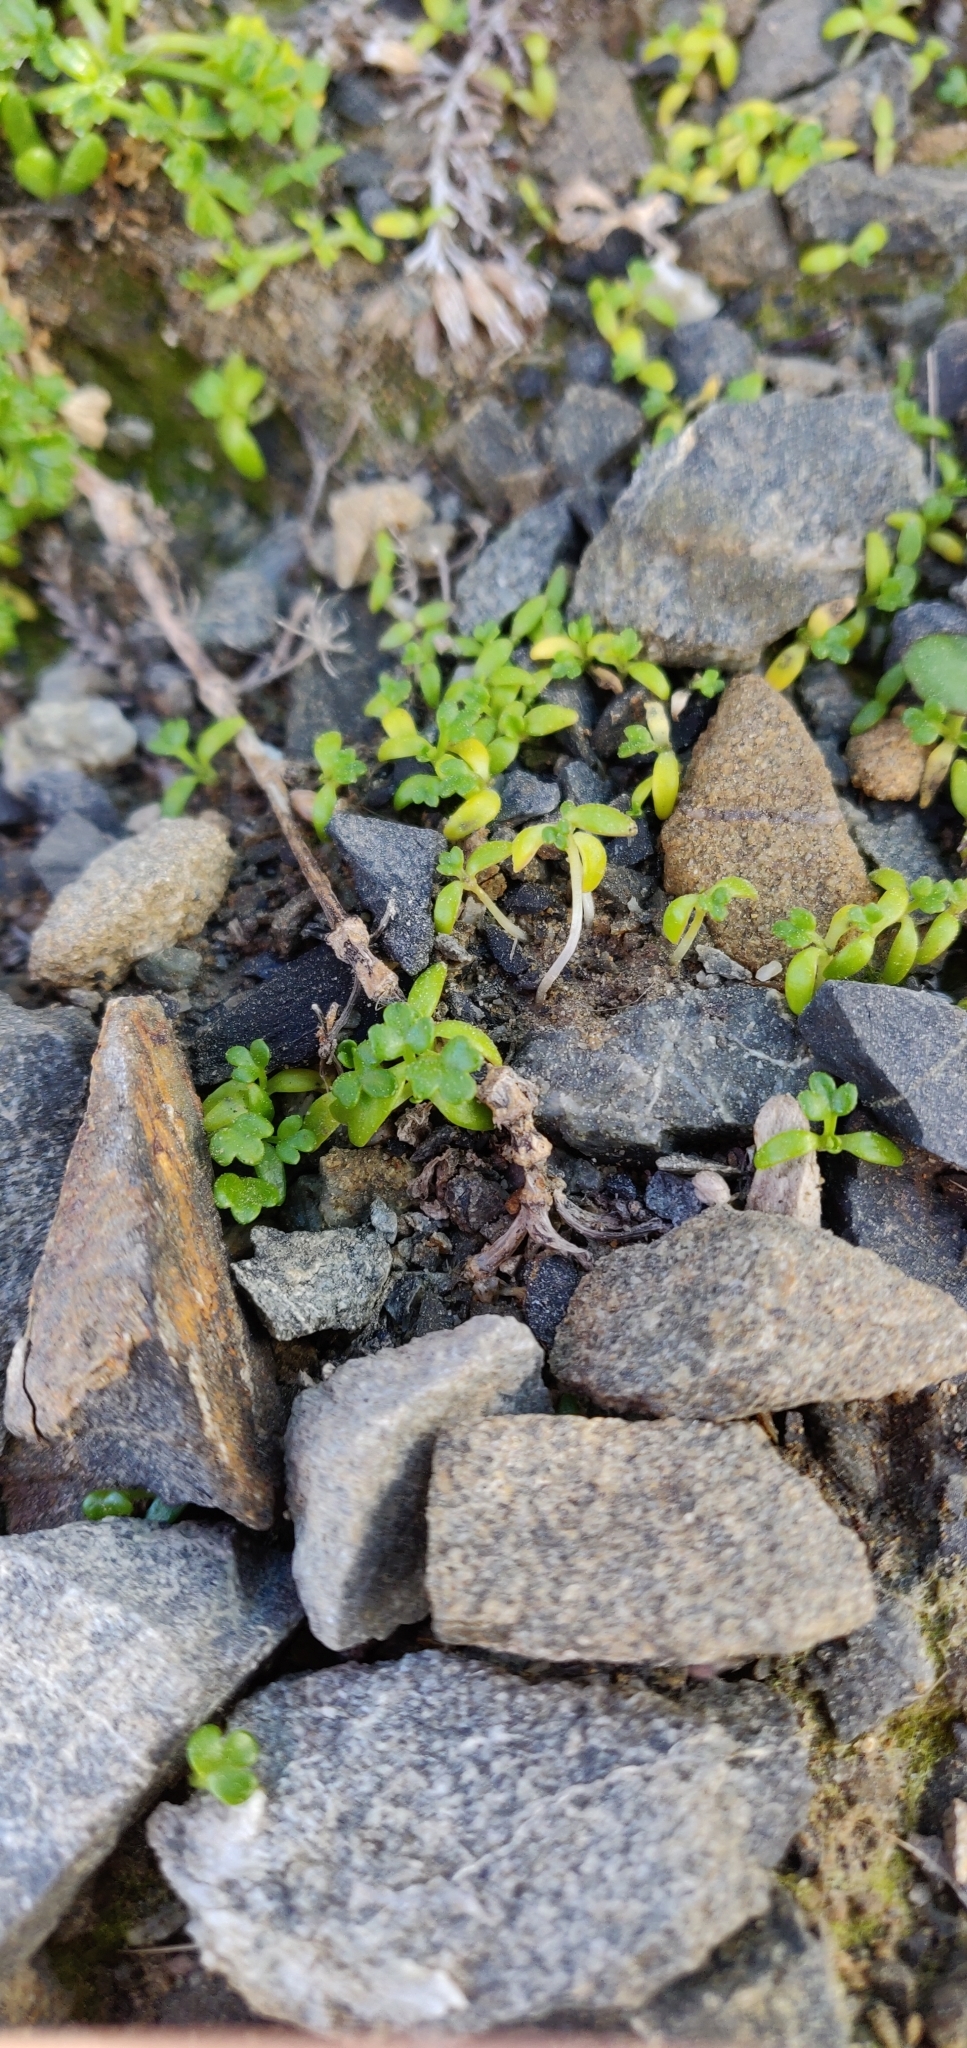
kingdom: Plantae
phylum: Tracheophyta
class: Magnoliopsida
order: Apiales
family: Apiaceae
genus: Apium
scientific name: Apium prostratum
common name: Prostrate marshwort
